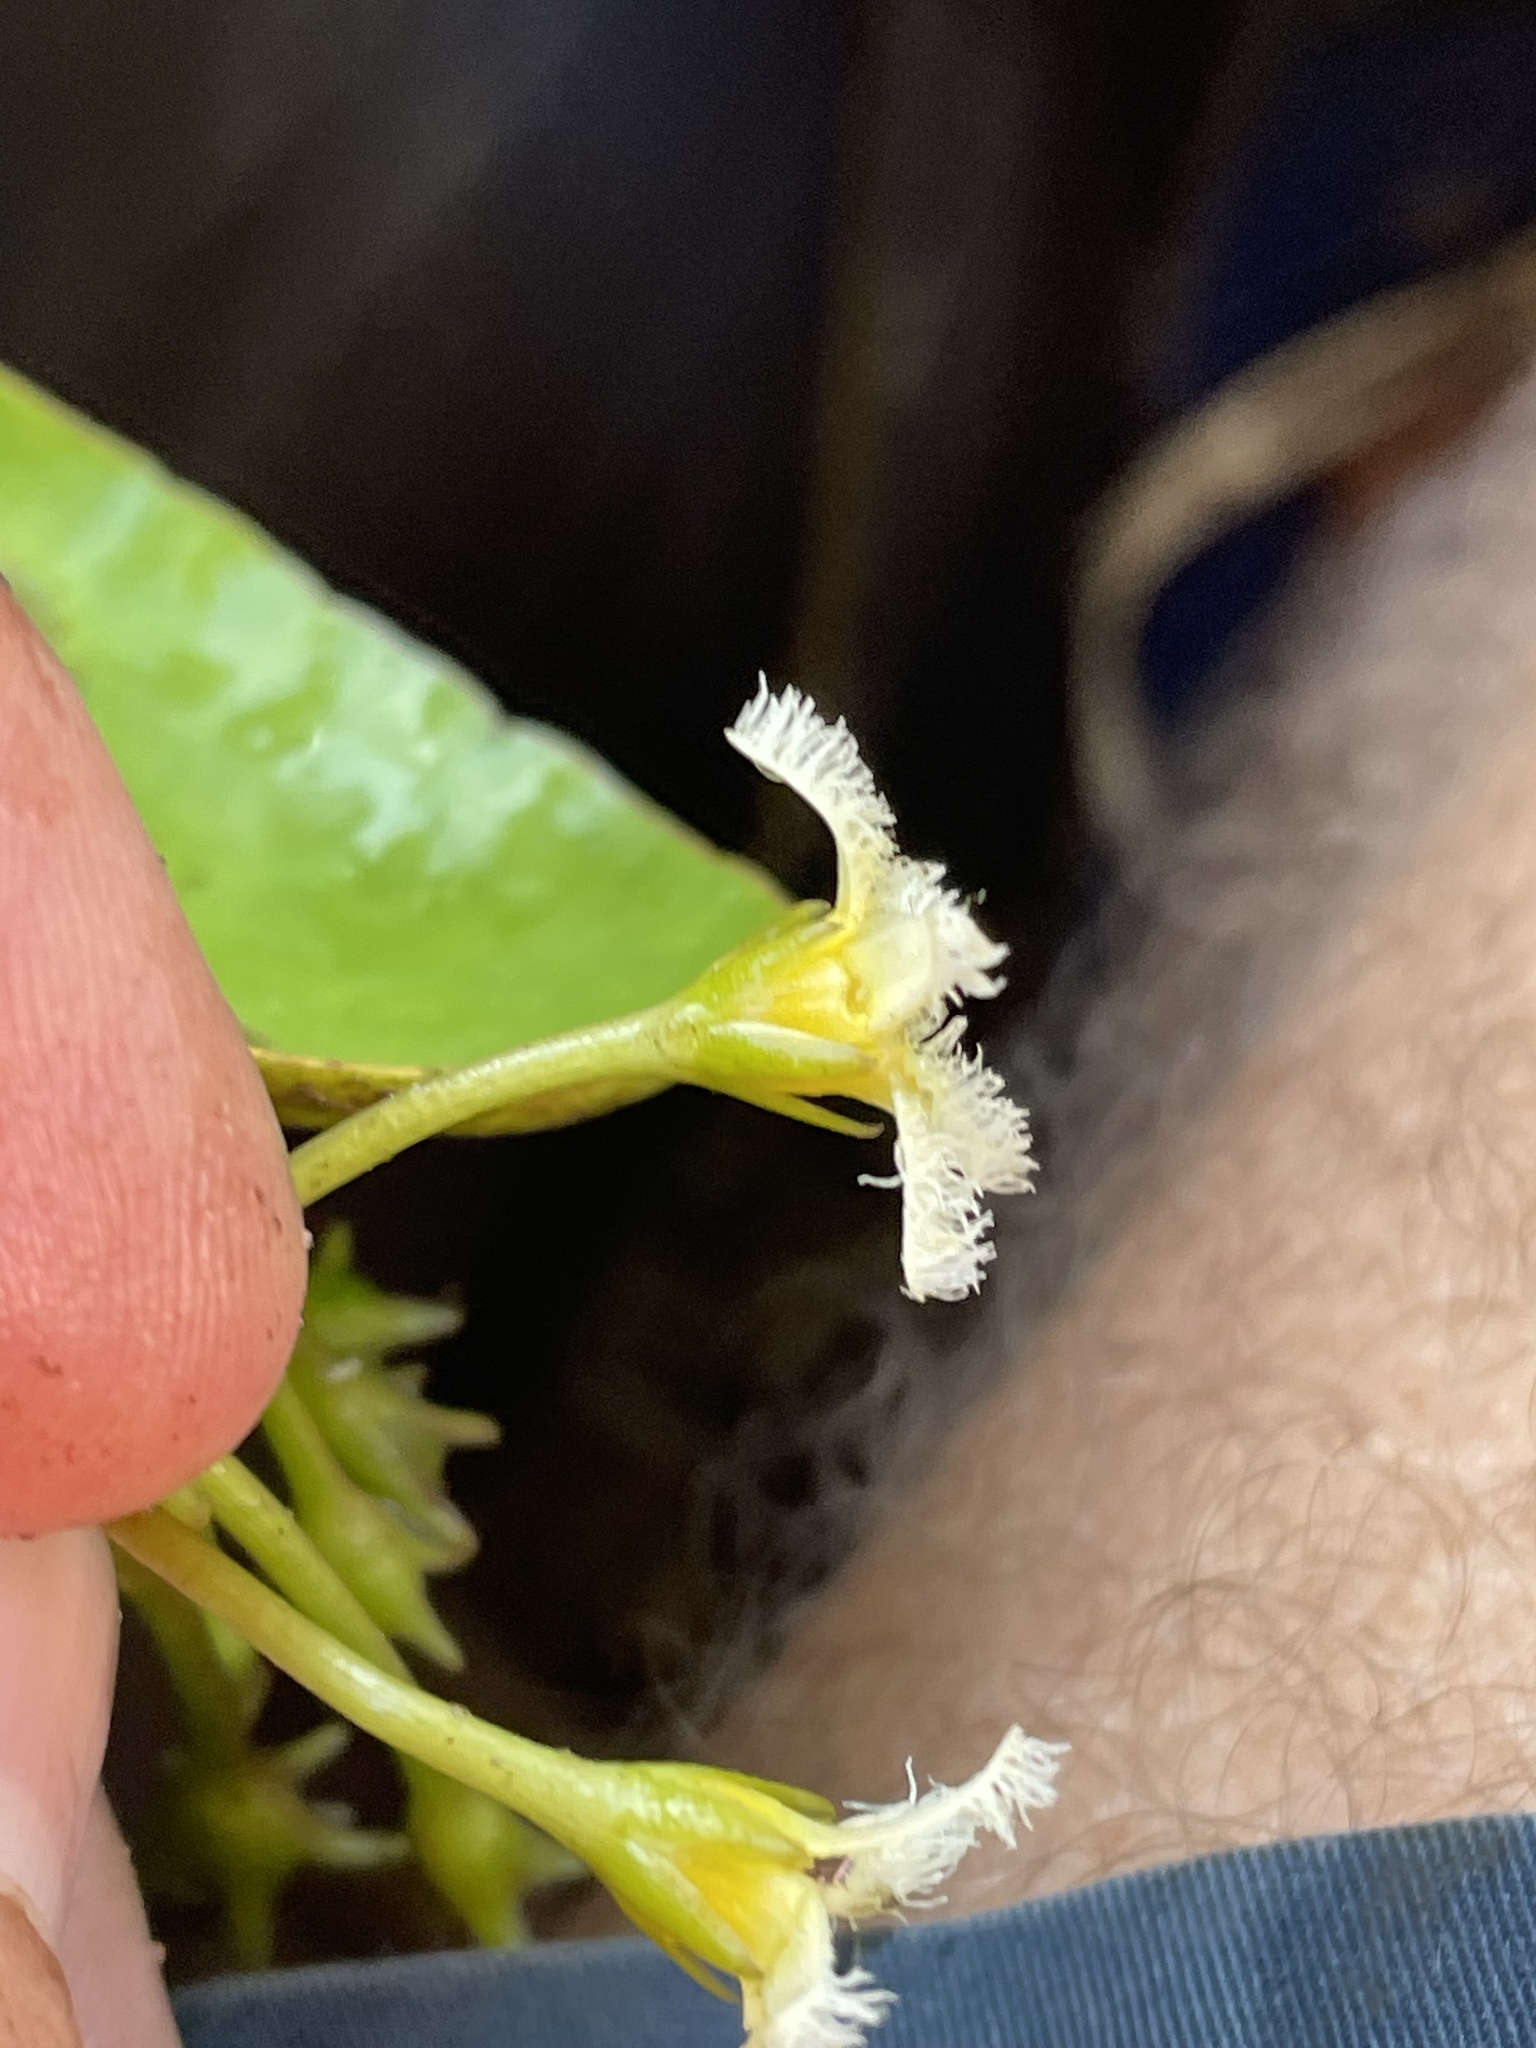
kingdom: Plantae
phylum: Tracheophyta
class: Magnoliopsida
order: Asterales
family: Menyanthaceae
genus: Nymphoides
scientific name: Nymphoides brevipedicellata
